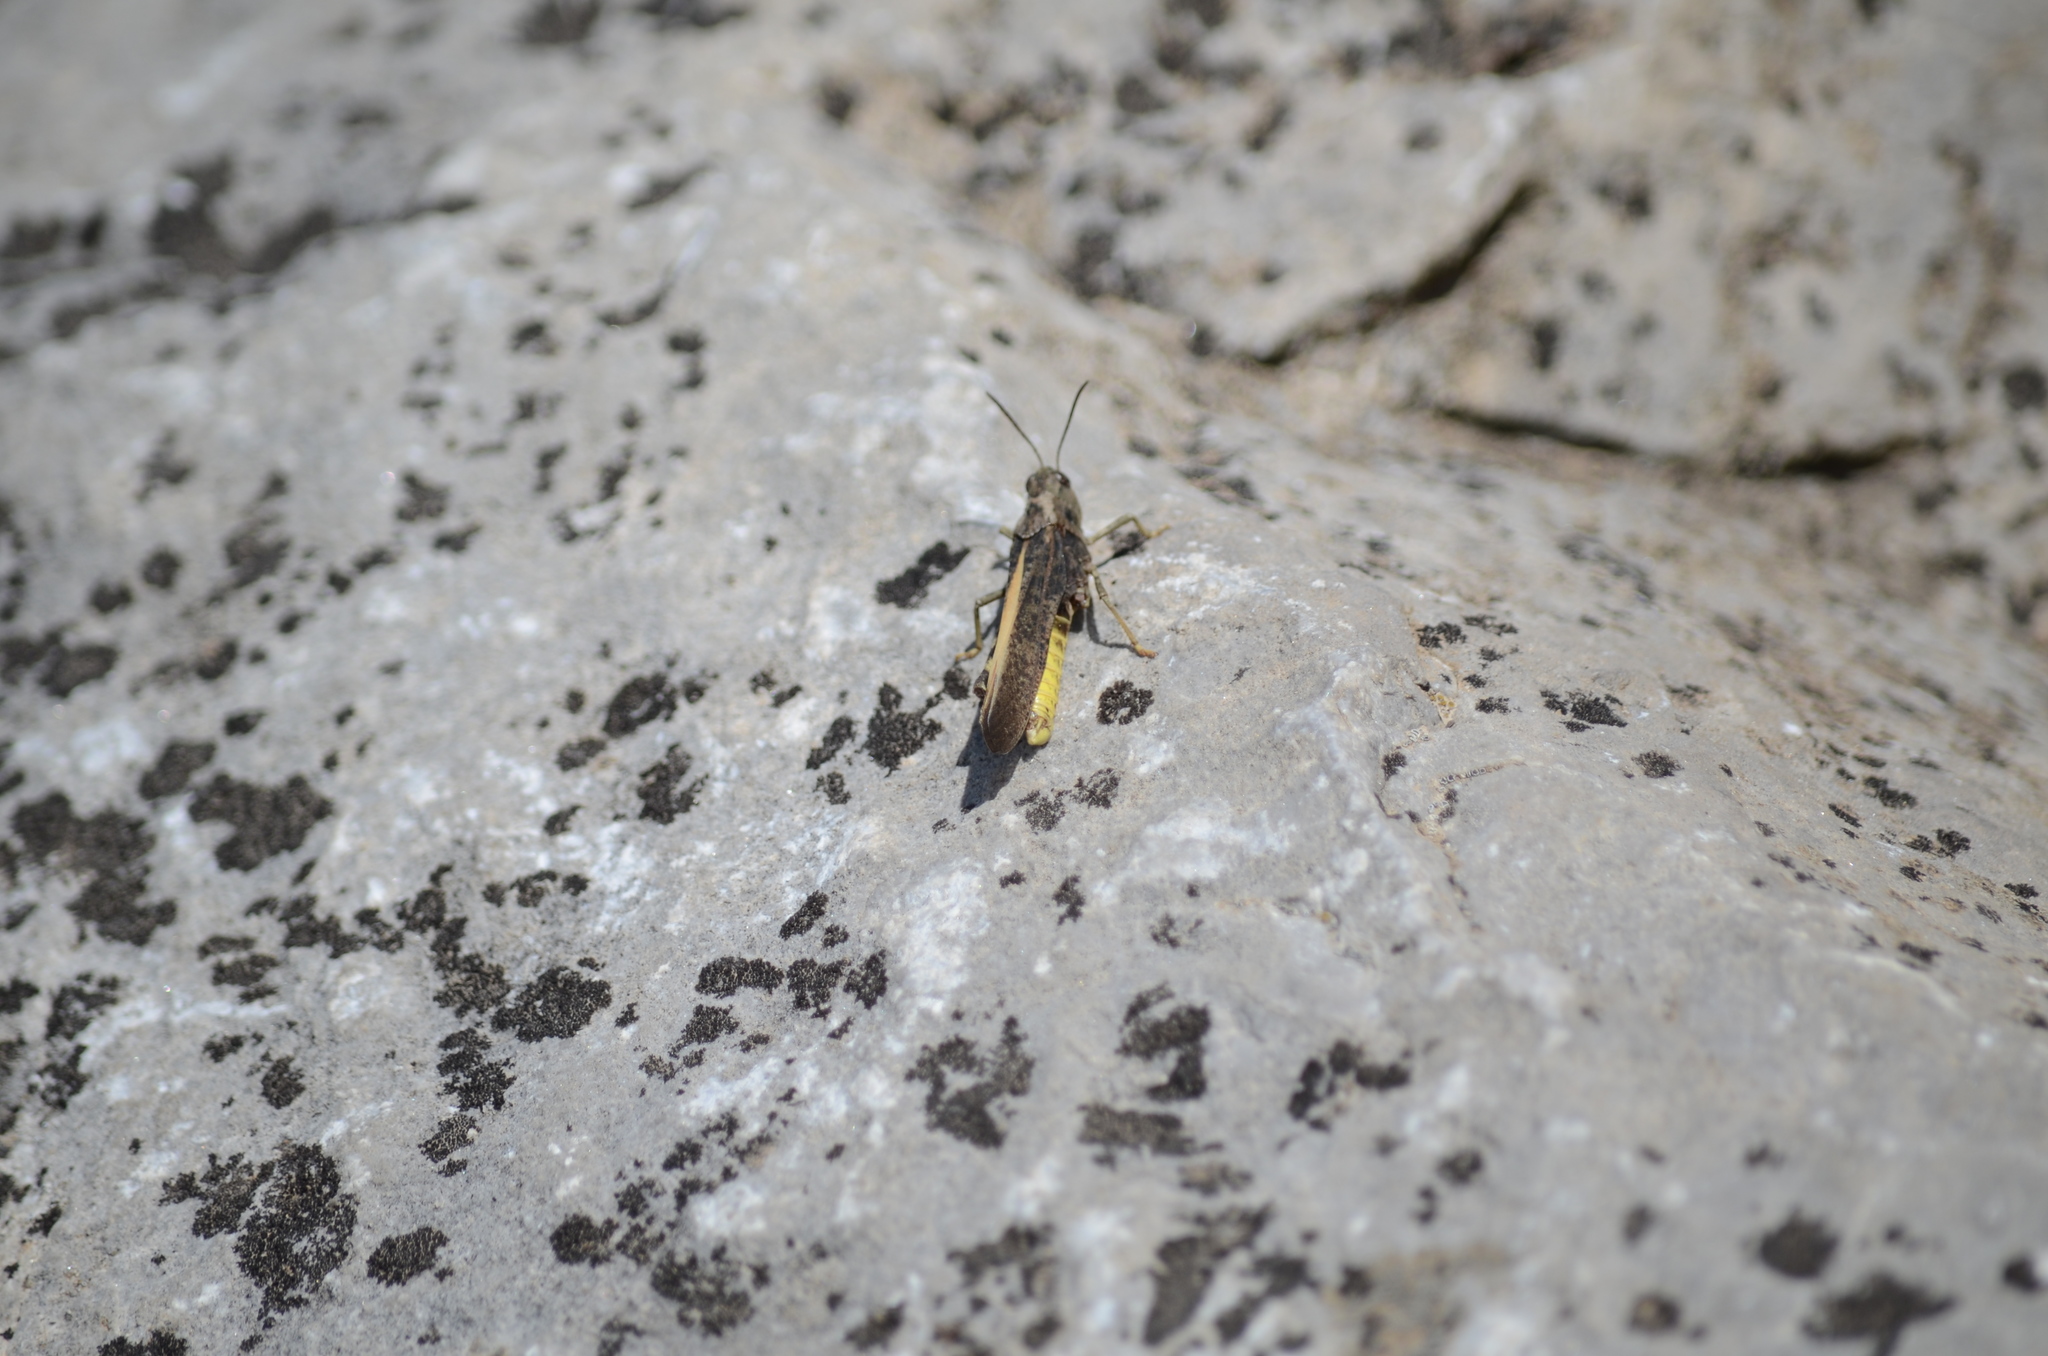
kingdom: Animalia
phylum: Arthropoda
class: Insecta
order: Orthoptera
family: Acrididae
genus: Arphia
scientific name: Arphia conspersa
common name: Speckle-winged rangeland grasshopper
